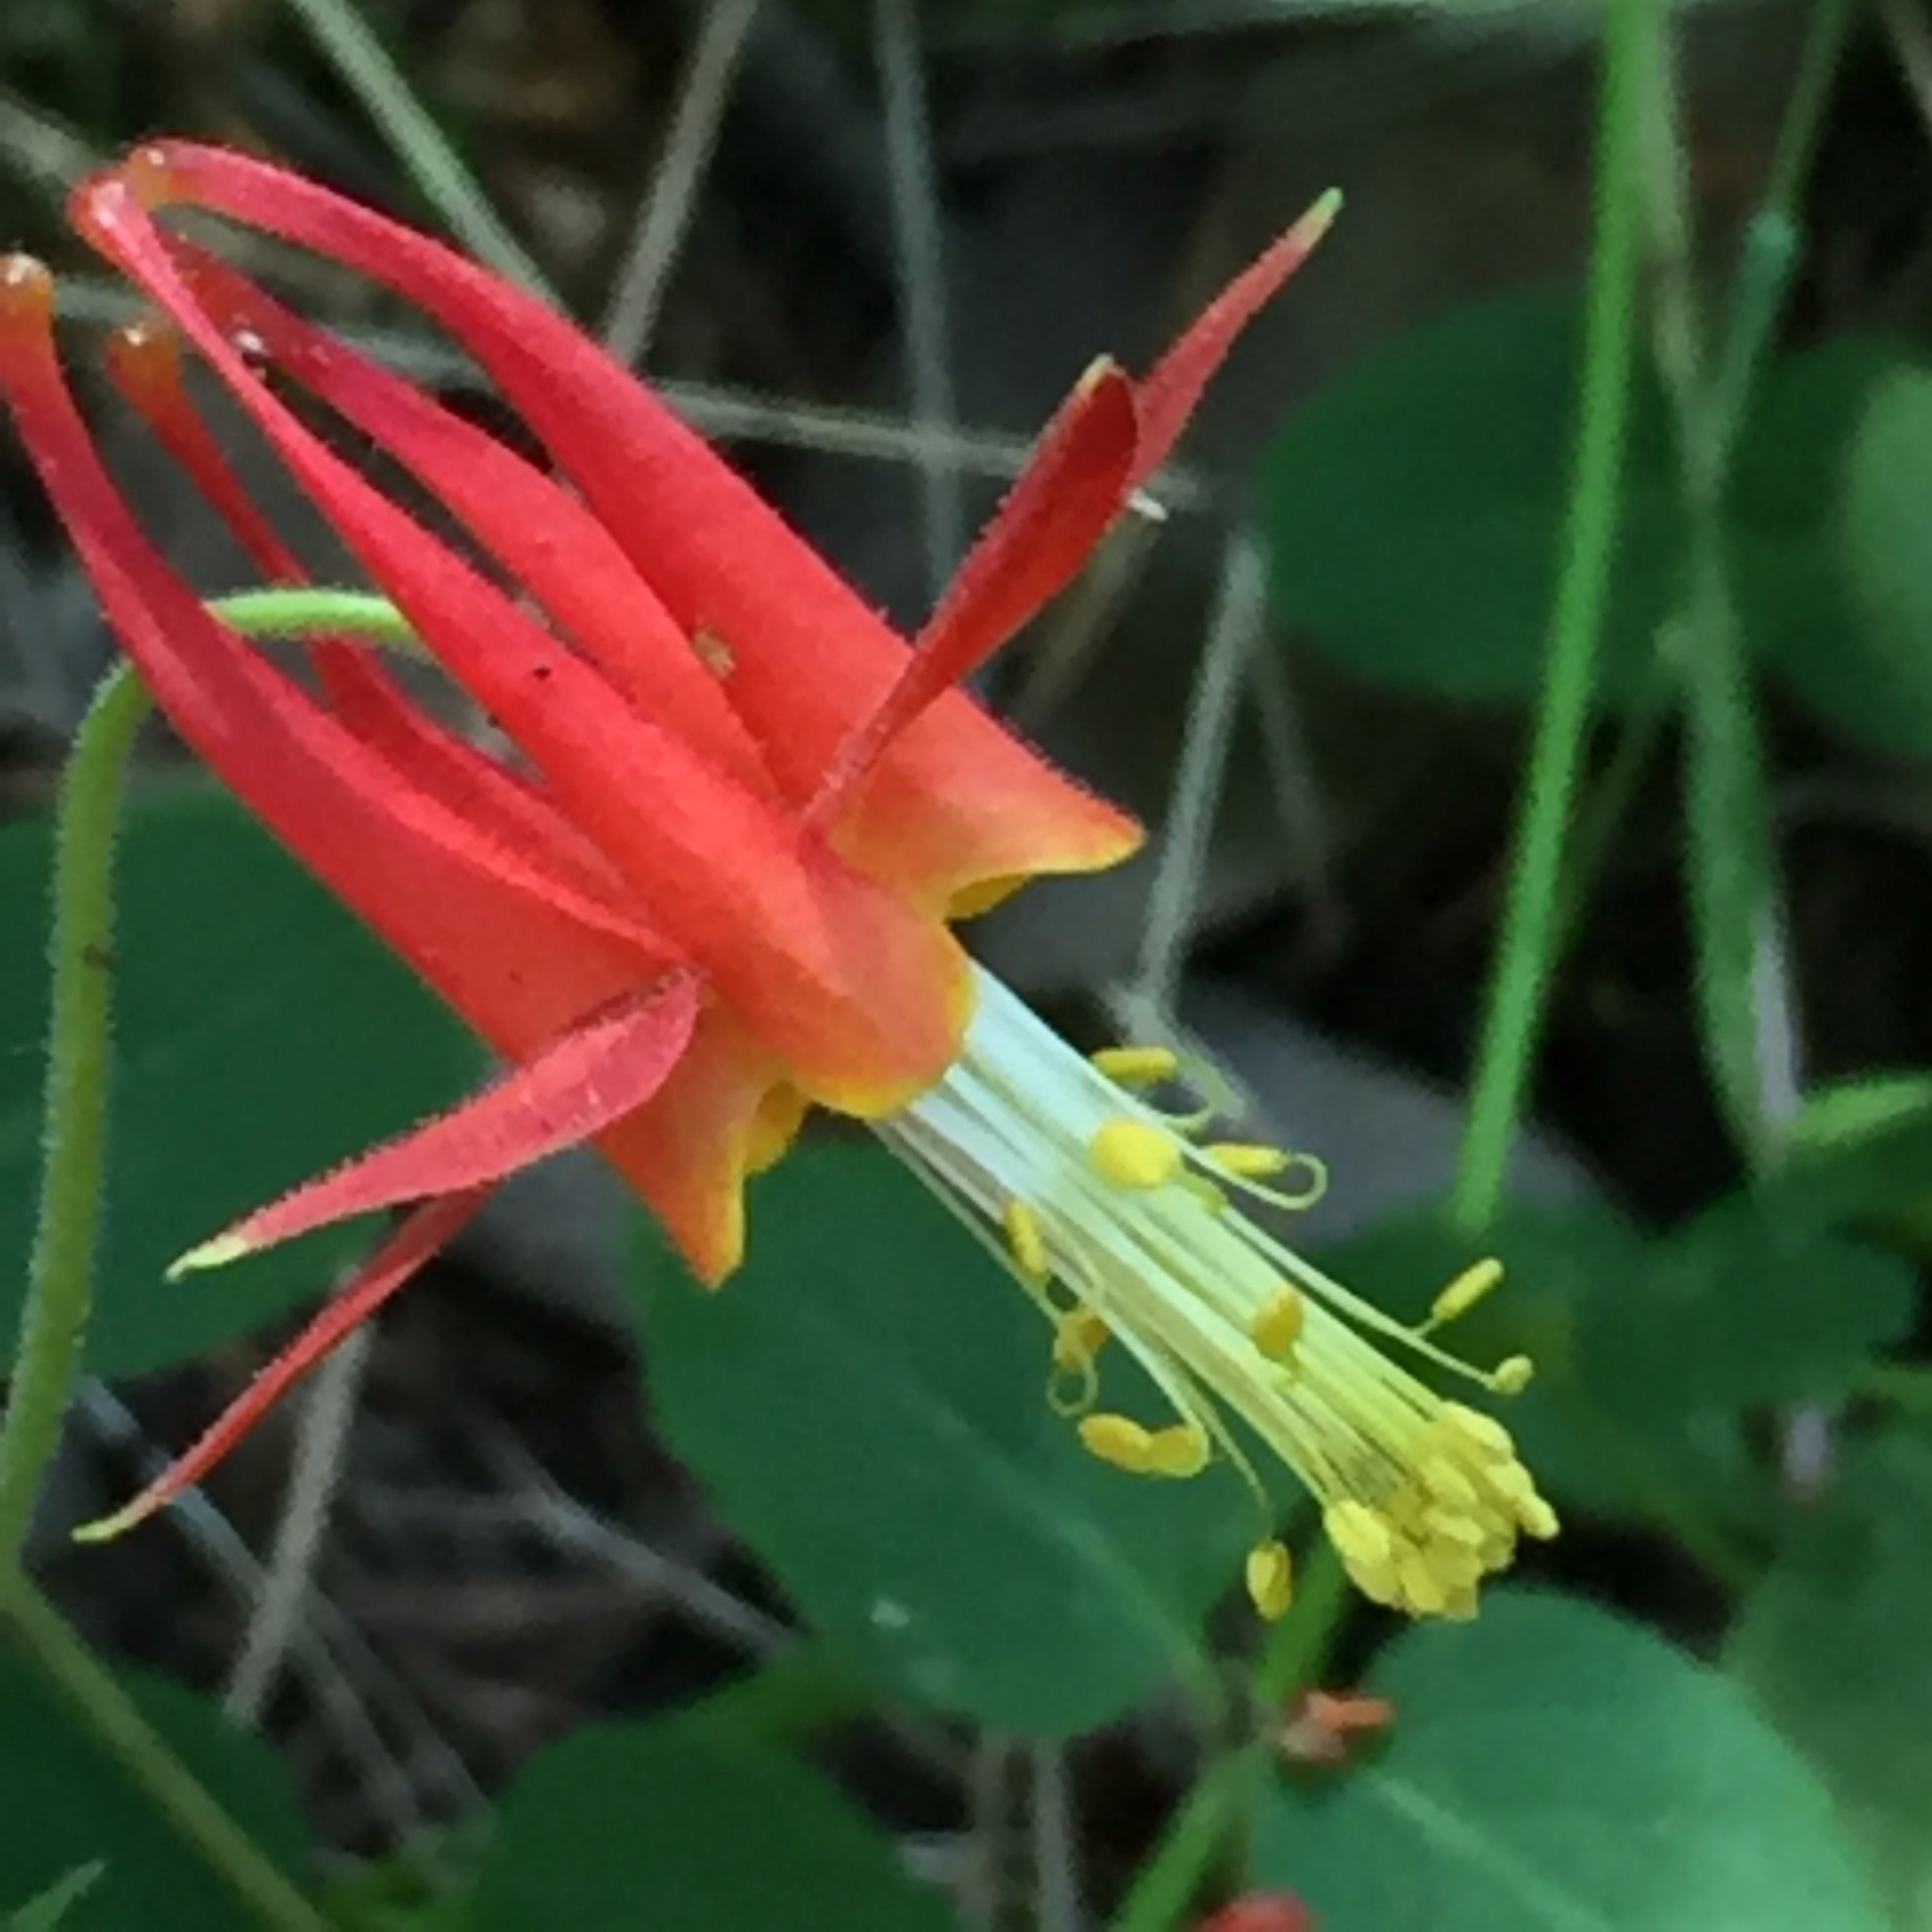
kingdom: Plantae
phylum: Tracheophyta
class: Magnoliopsida
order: Ranunculales
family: Ranunculaceae
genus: Aquilegia
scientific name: Aquilegia formosa
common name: Sitka columbine
